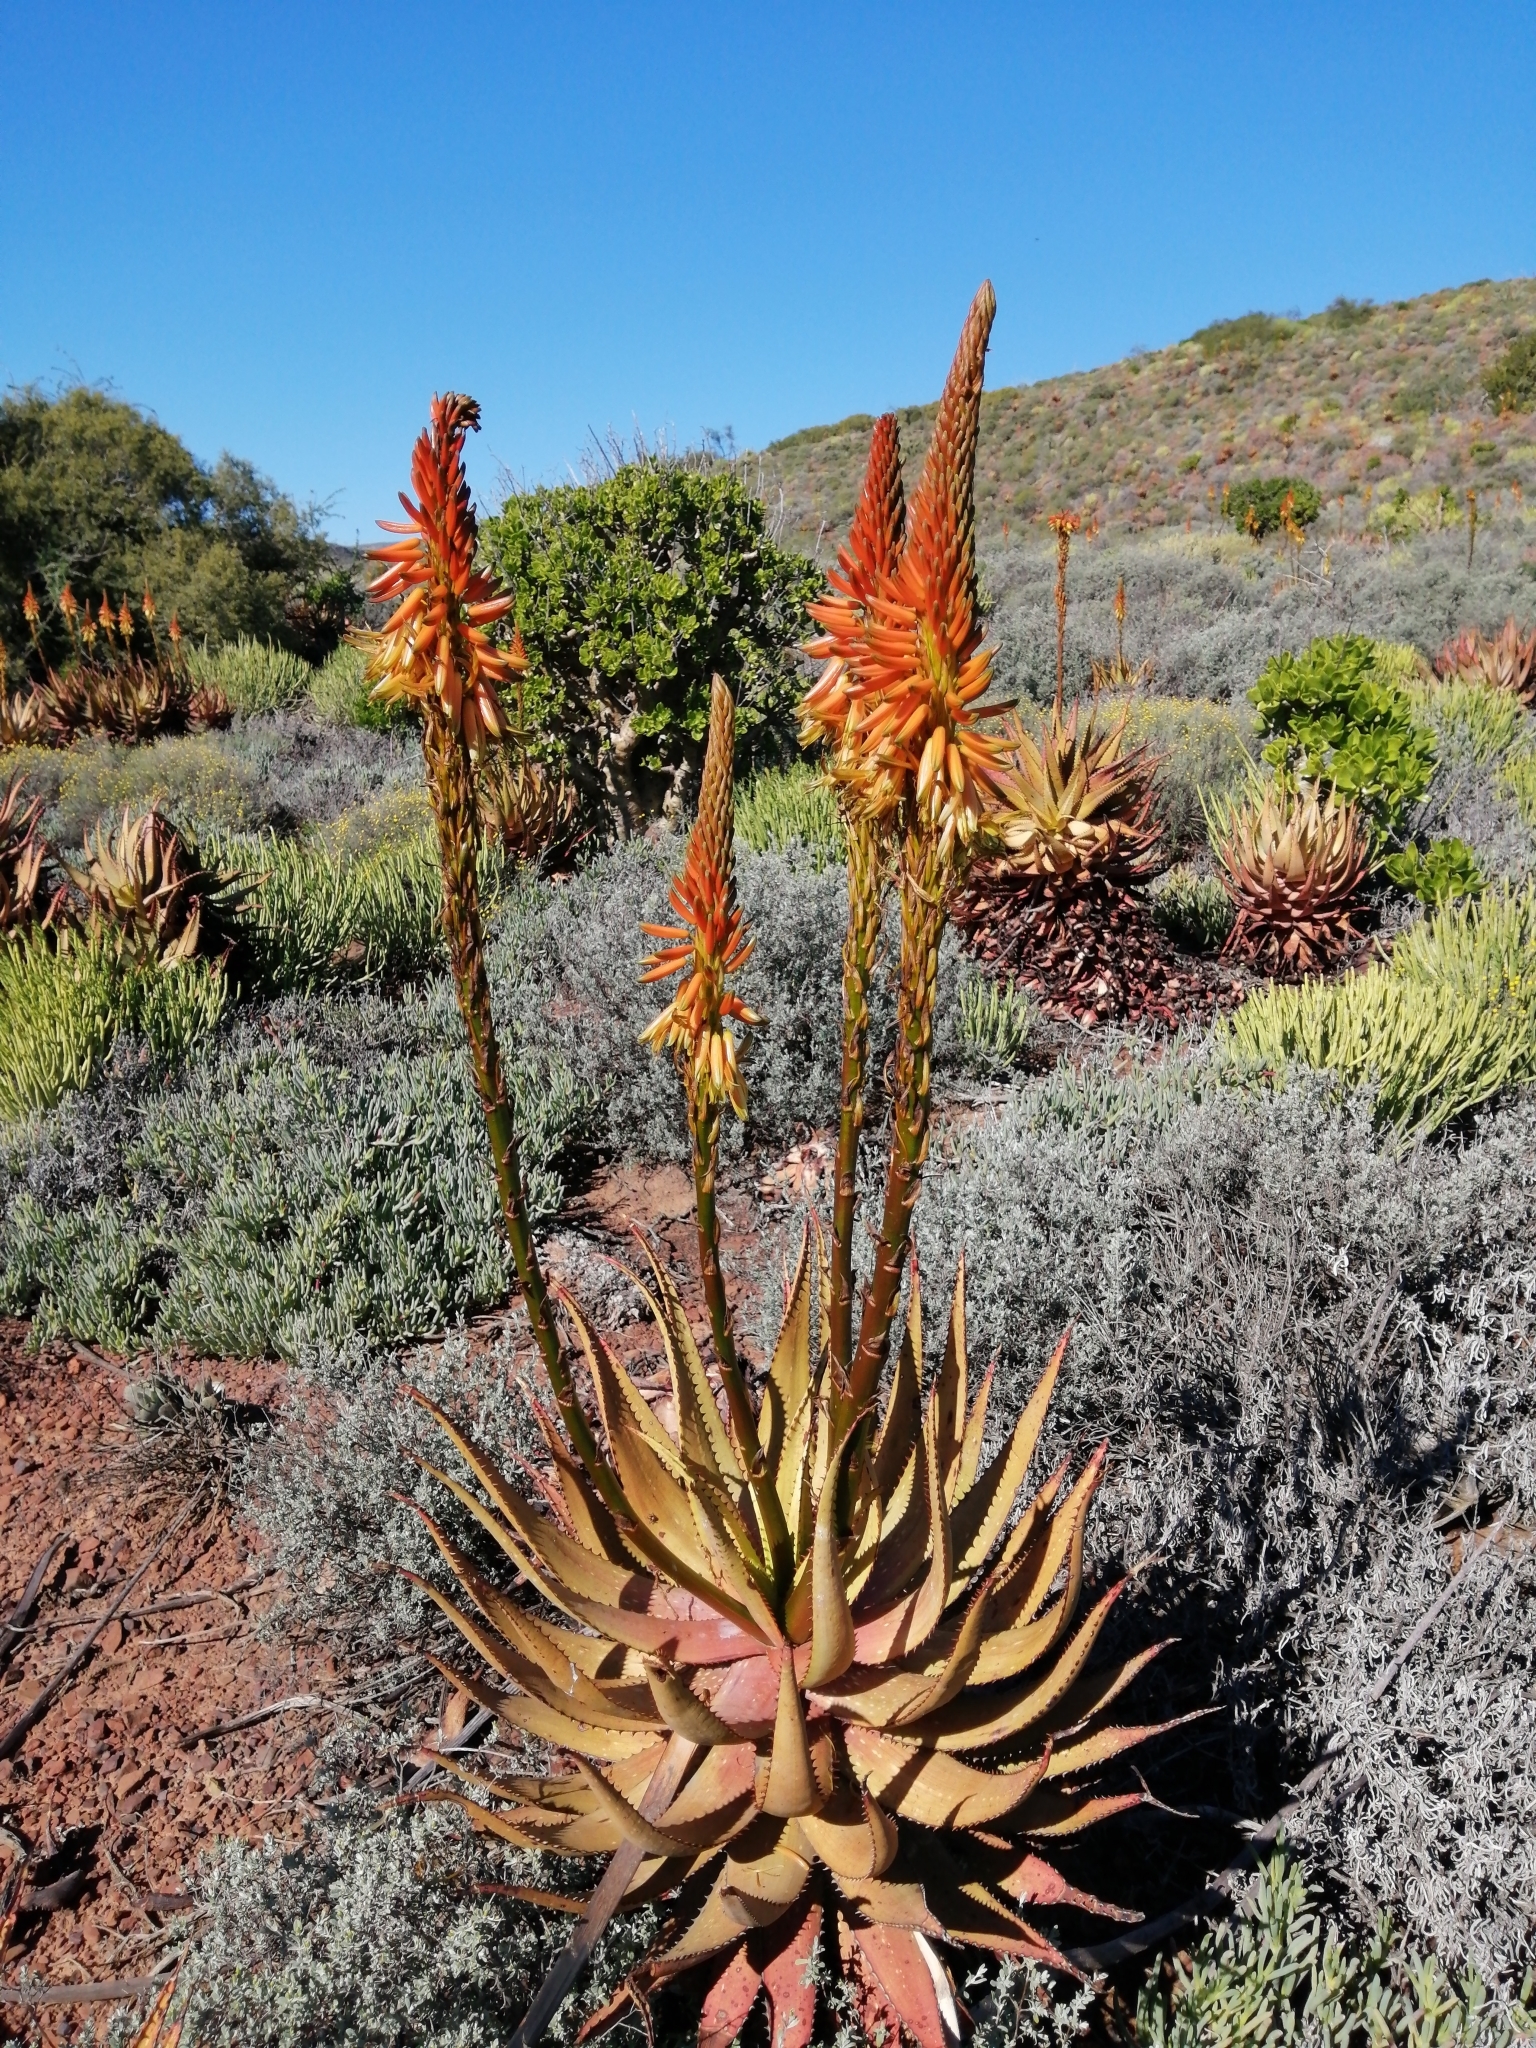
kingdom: Plantae
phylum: Tracheophyta
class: Liliopsida
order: Asparagales
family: Asphodelaceae
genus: Aloe
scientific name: Aloe microstigma
